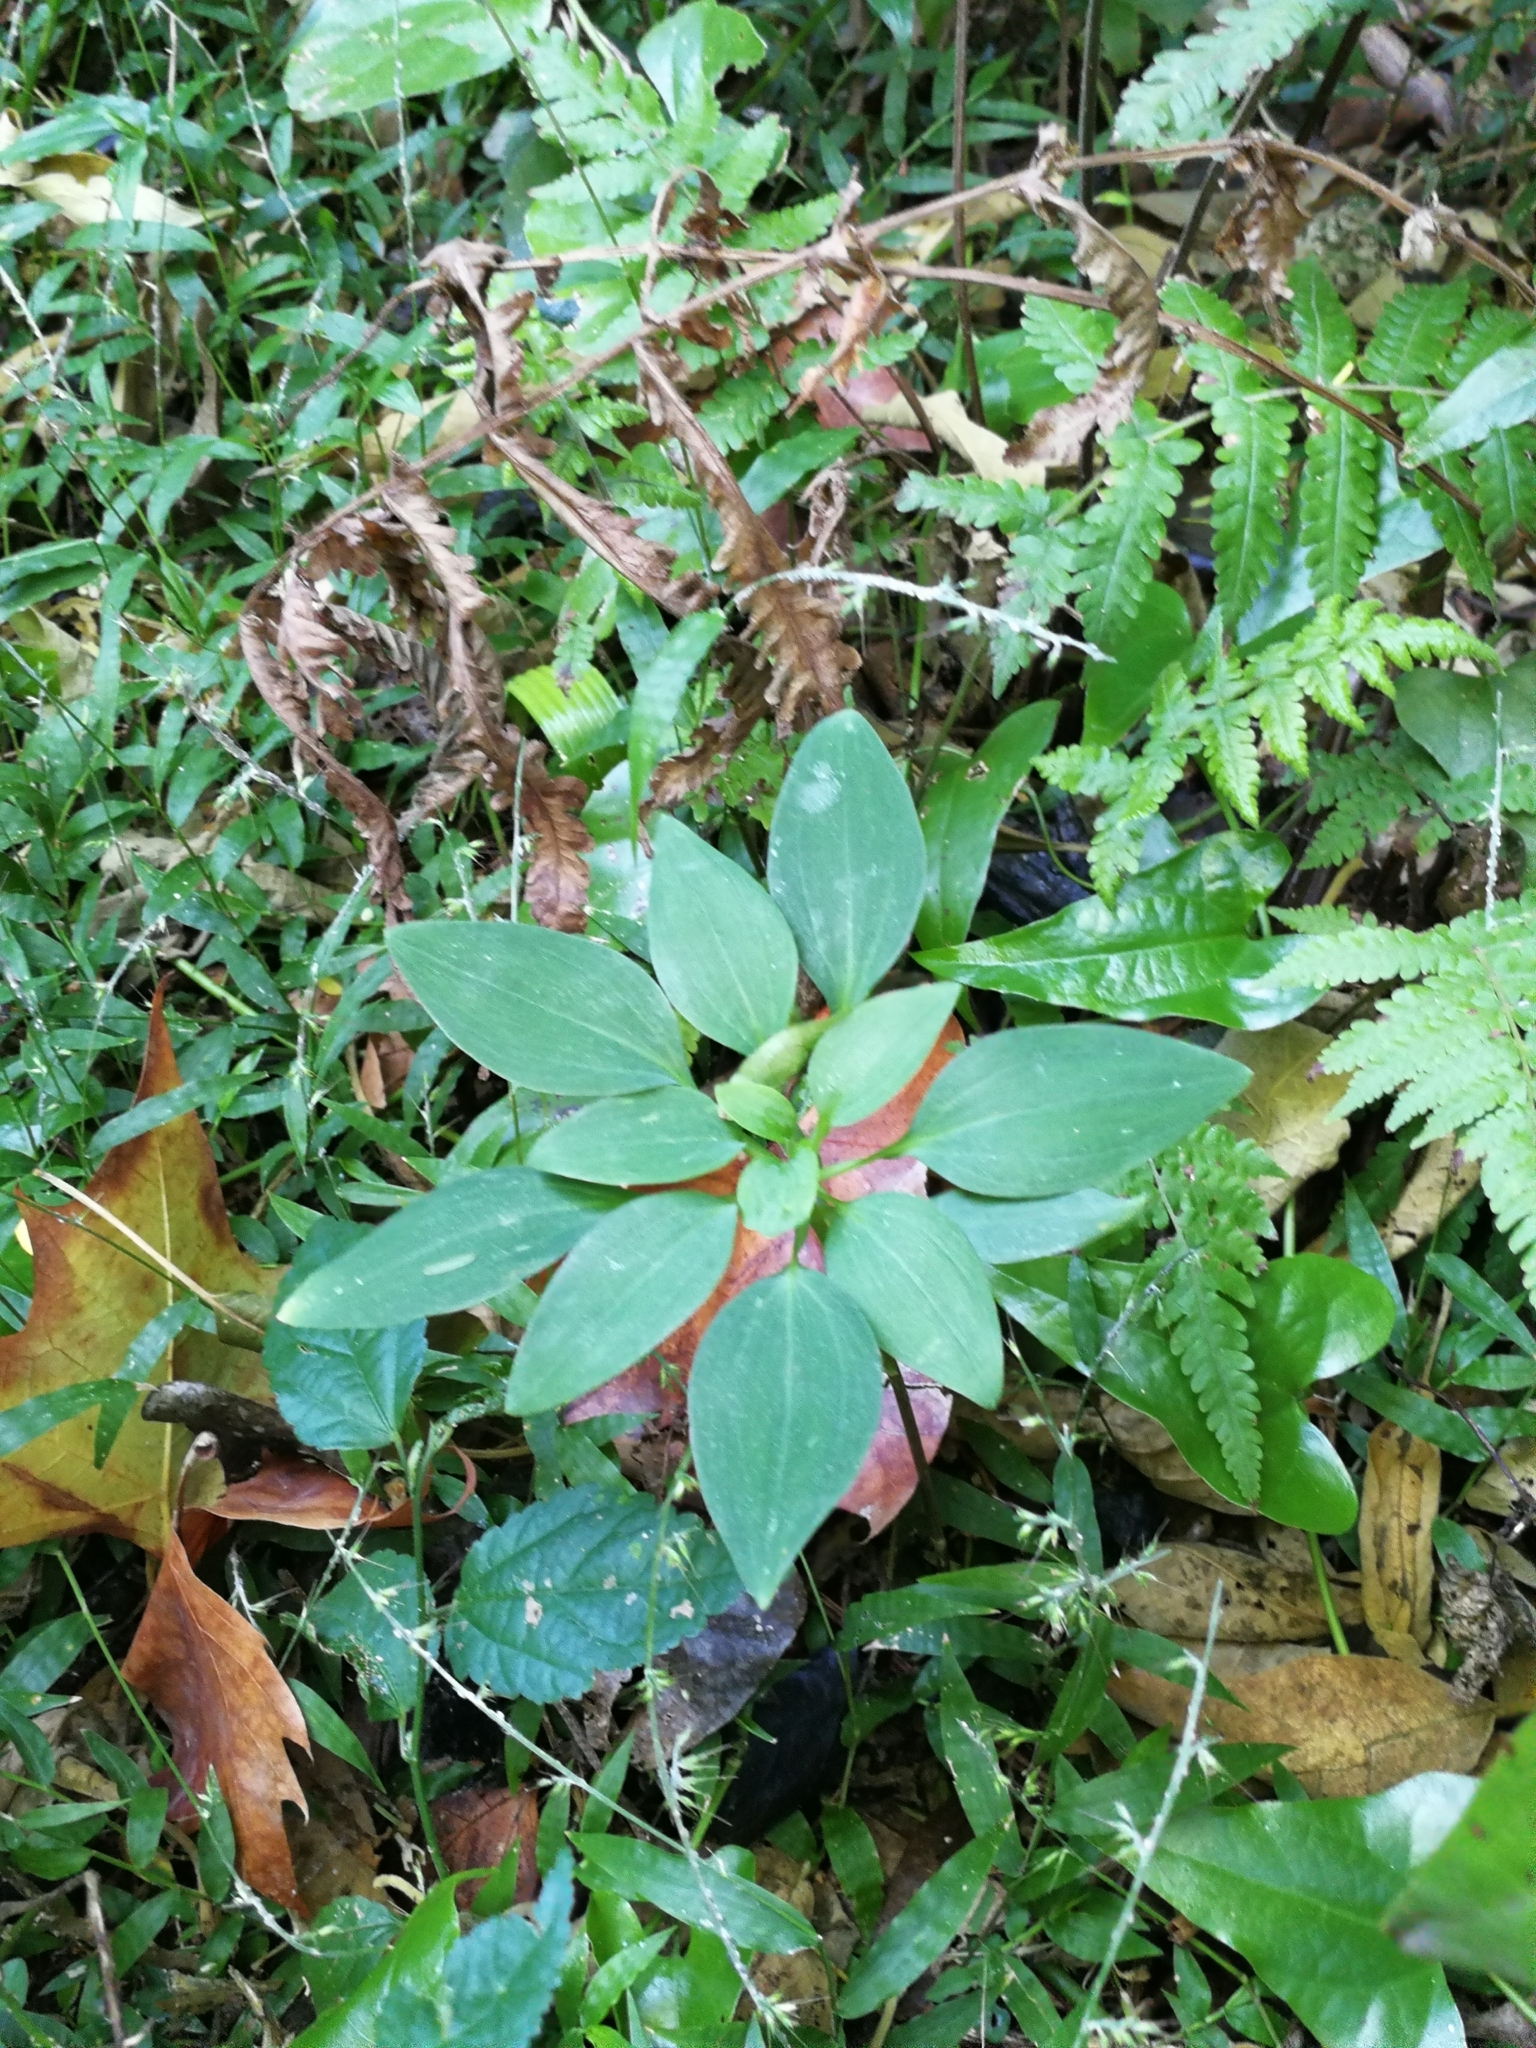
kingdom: Plantae
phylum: Tracheophyta
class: Liliopsida
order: Liliales
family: Alstroemeriaceae
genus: Alstroemeria
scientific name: Alstroemeria psittacina
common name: Peruvian-lily
